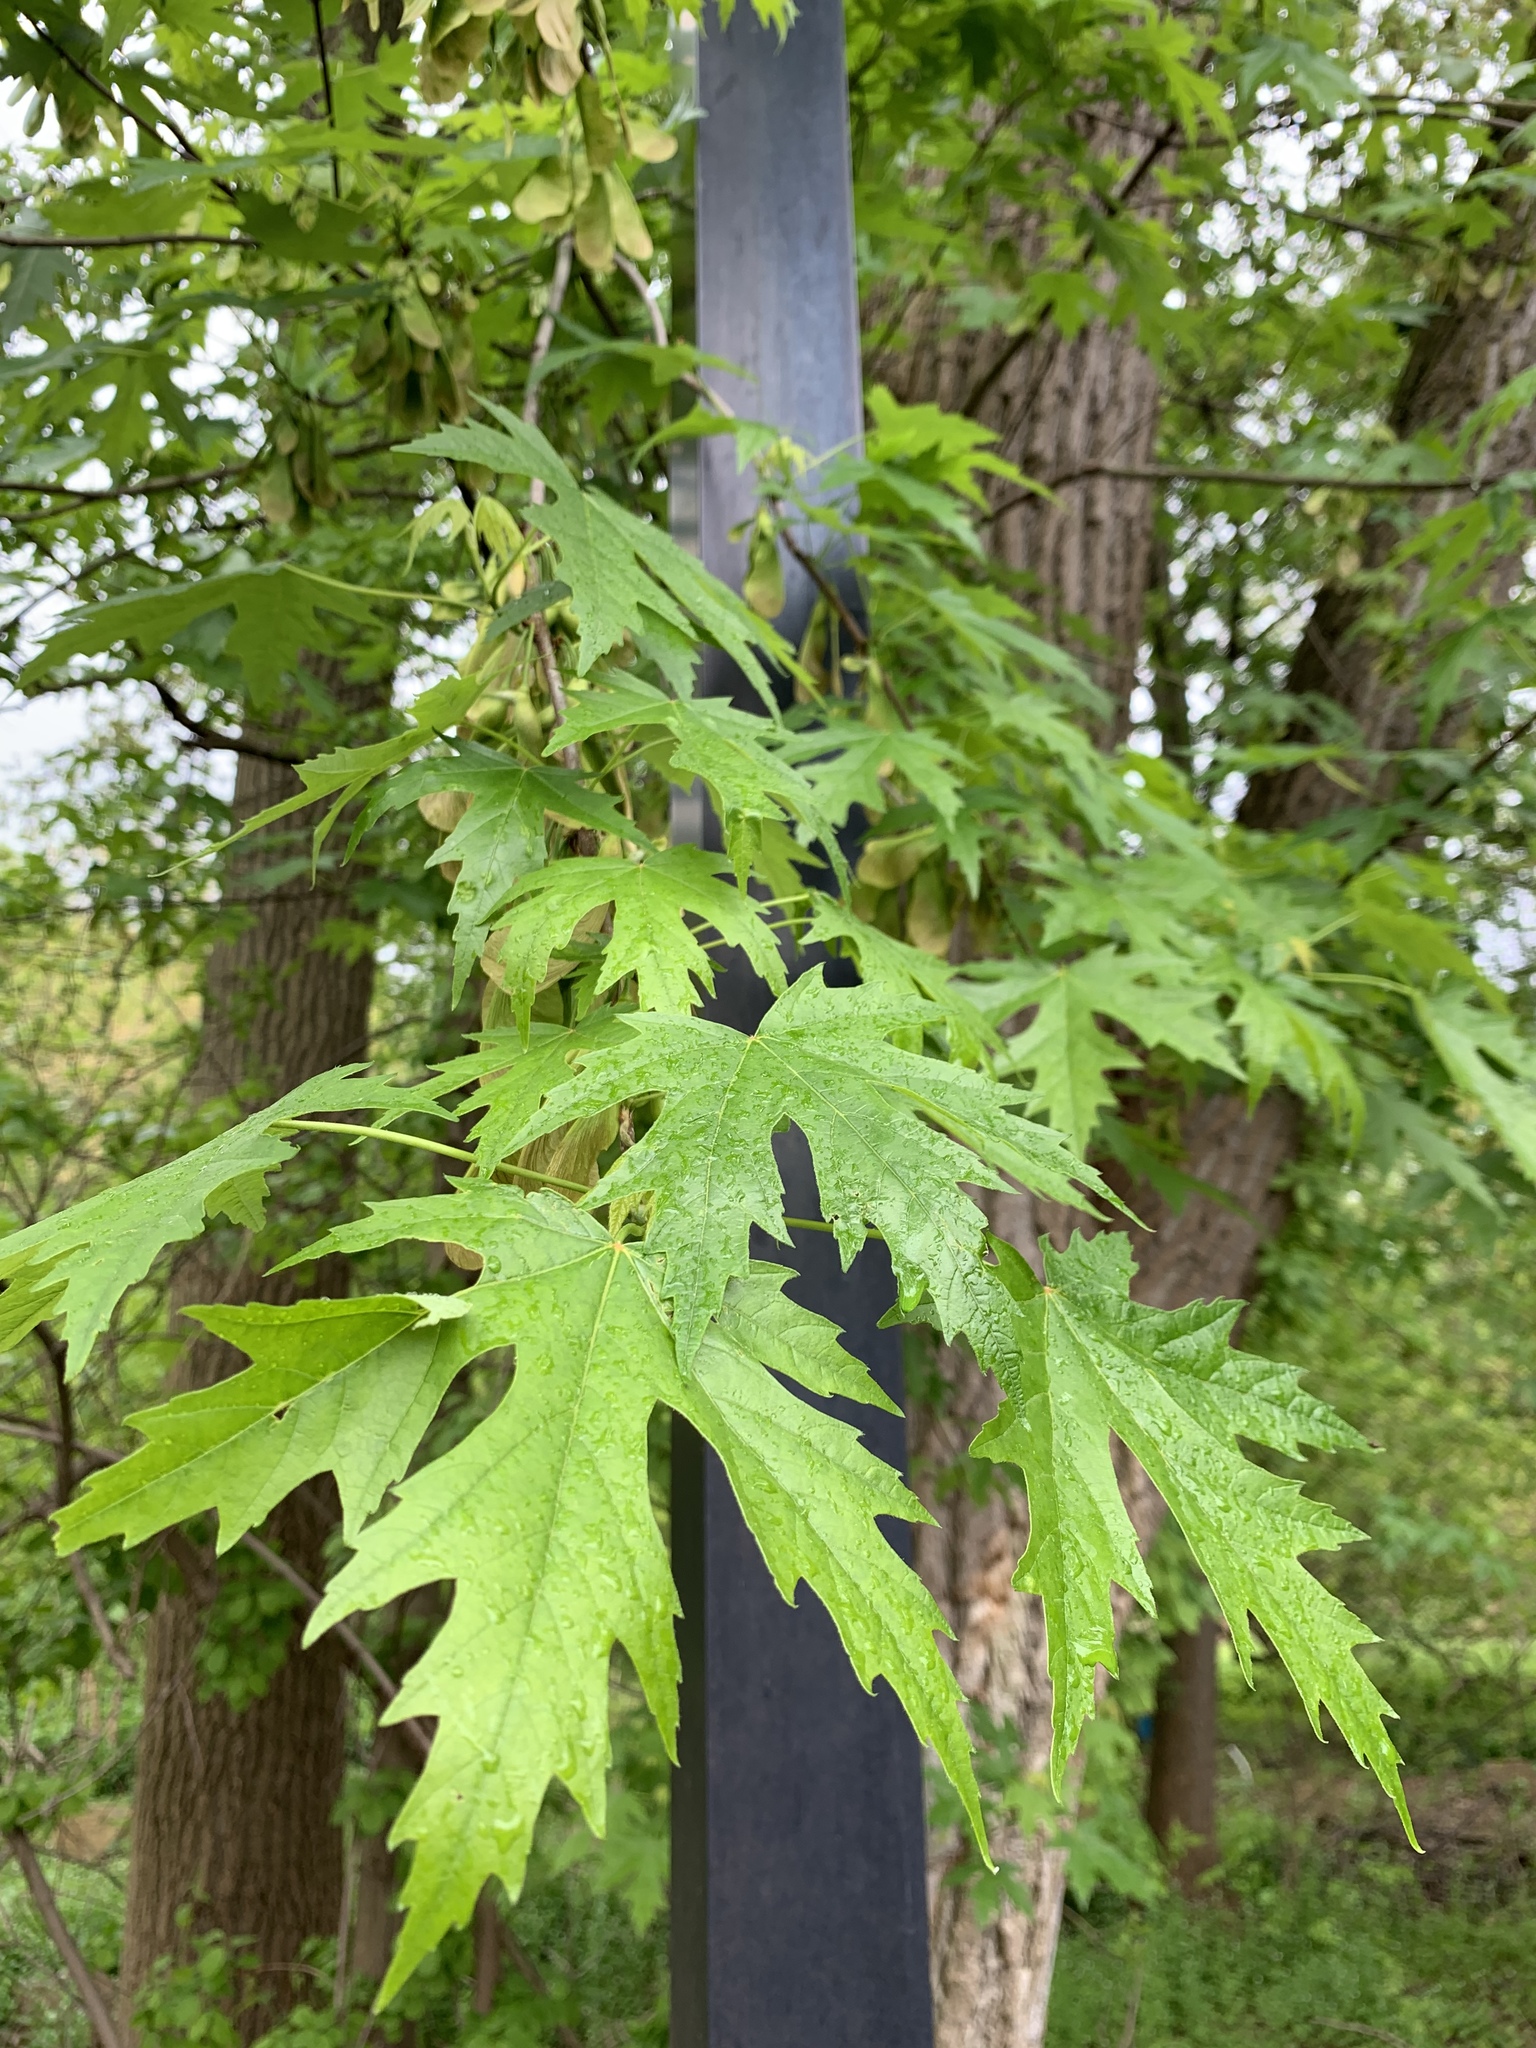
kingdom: Plantae
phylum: Tracheophyta
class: Magnoliopsida
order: Sapindales
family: Sapindaceae
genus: Acer
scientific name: Acer saccharinum
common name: Silver maple
